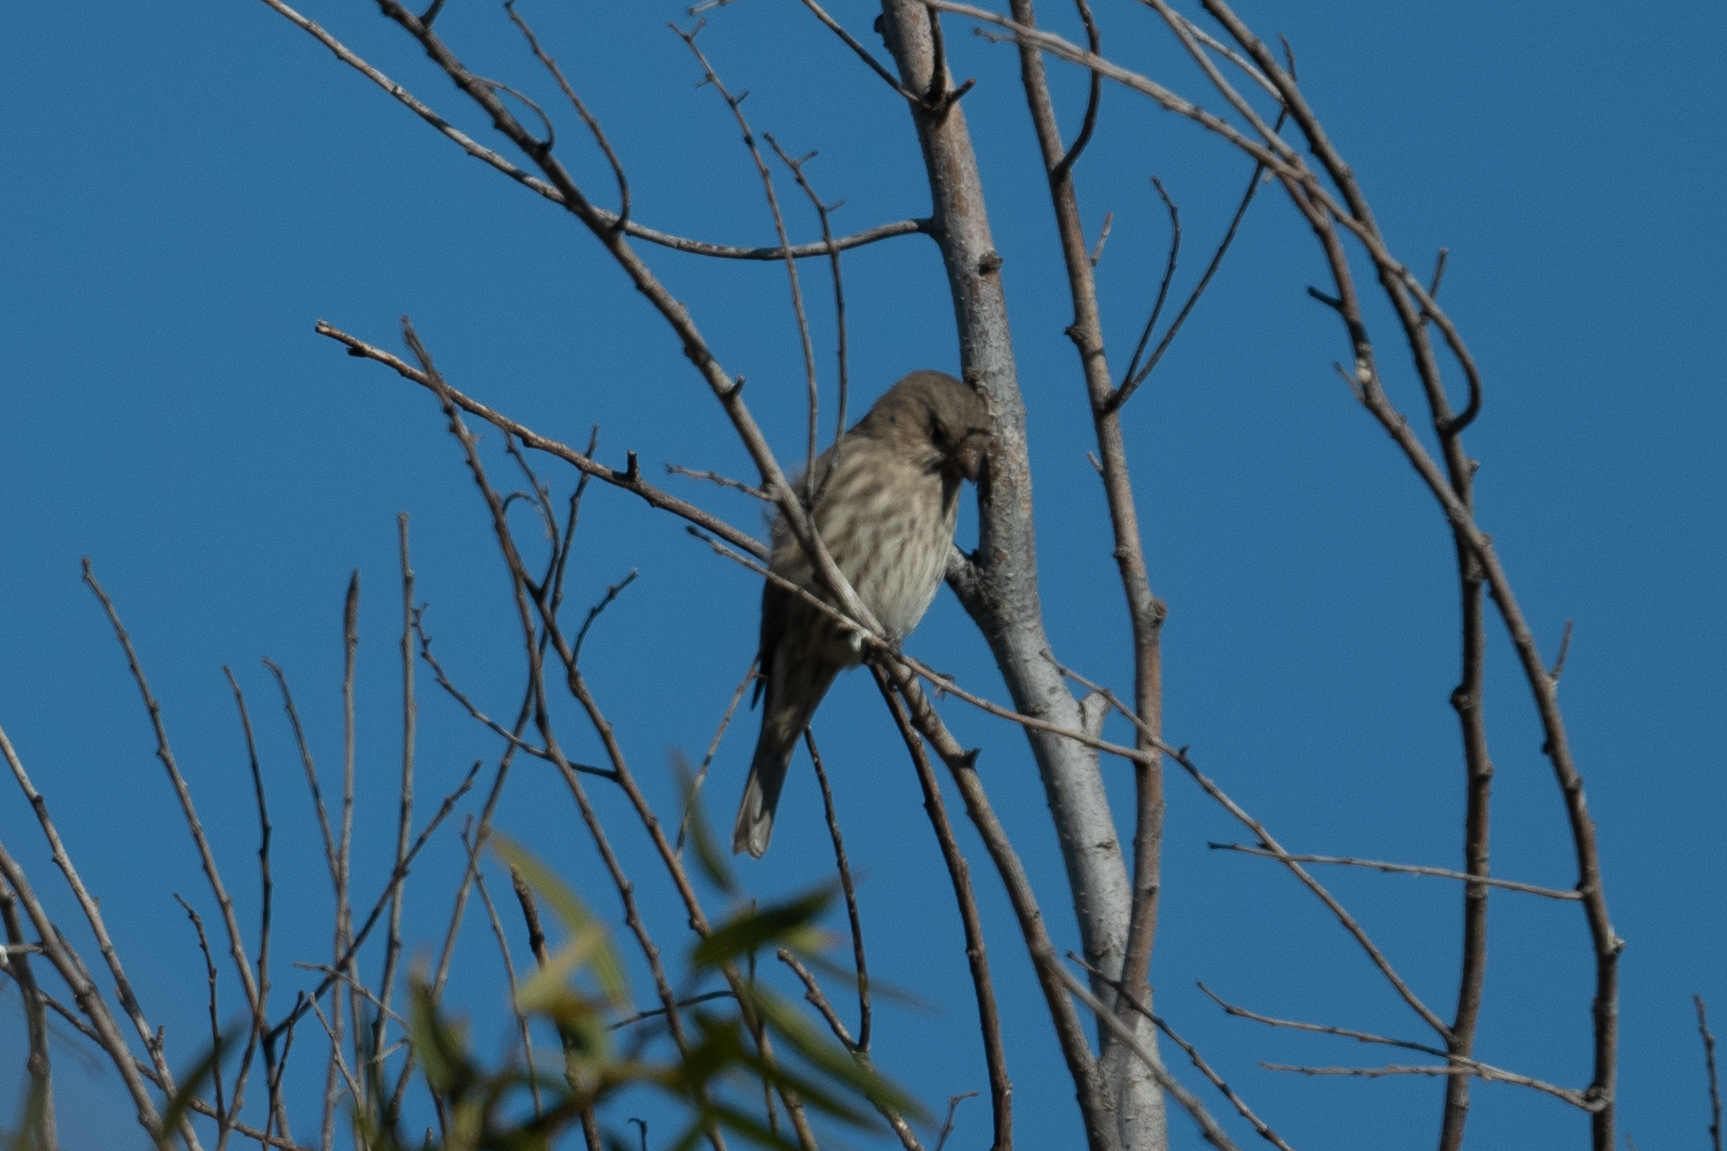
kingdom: Animalia
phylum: Chordata
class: Aves
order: Passeriformes
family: Fringillidae
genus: Haemorhous
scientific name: Haemorhous mexicanus
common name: House finch
